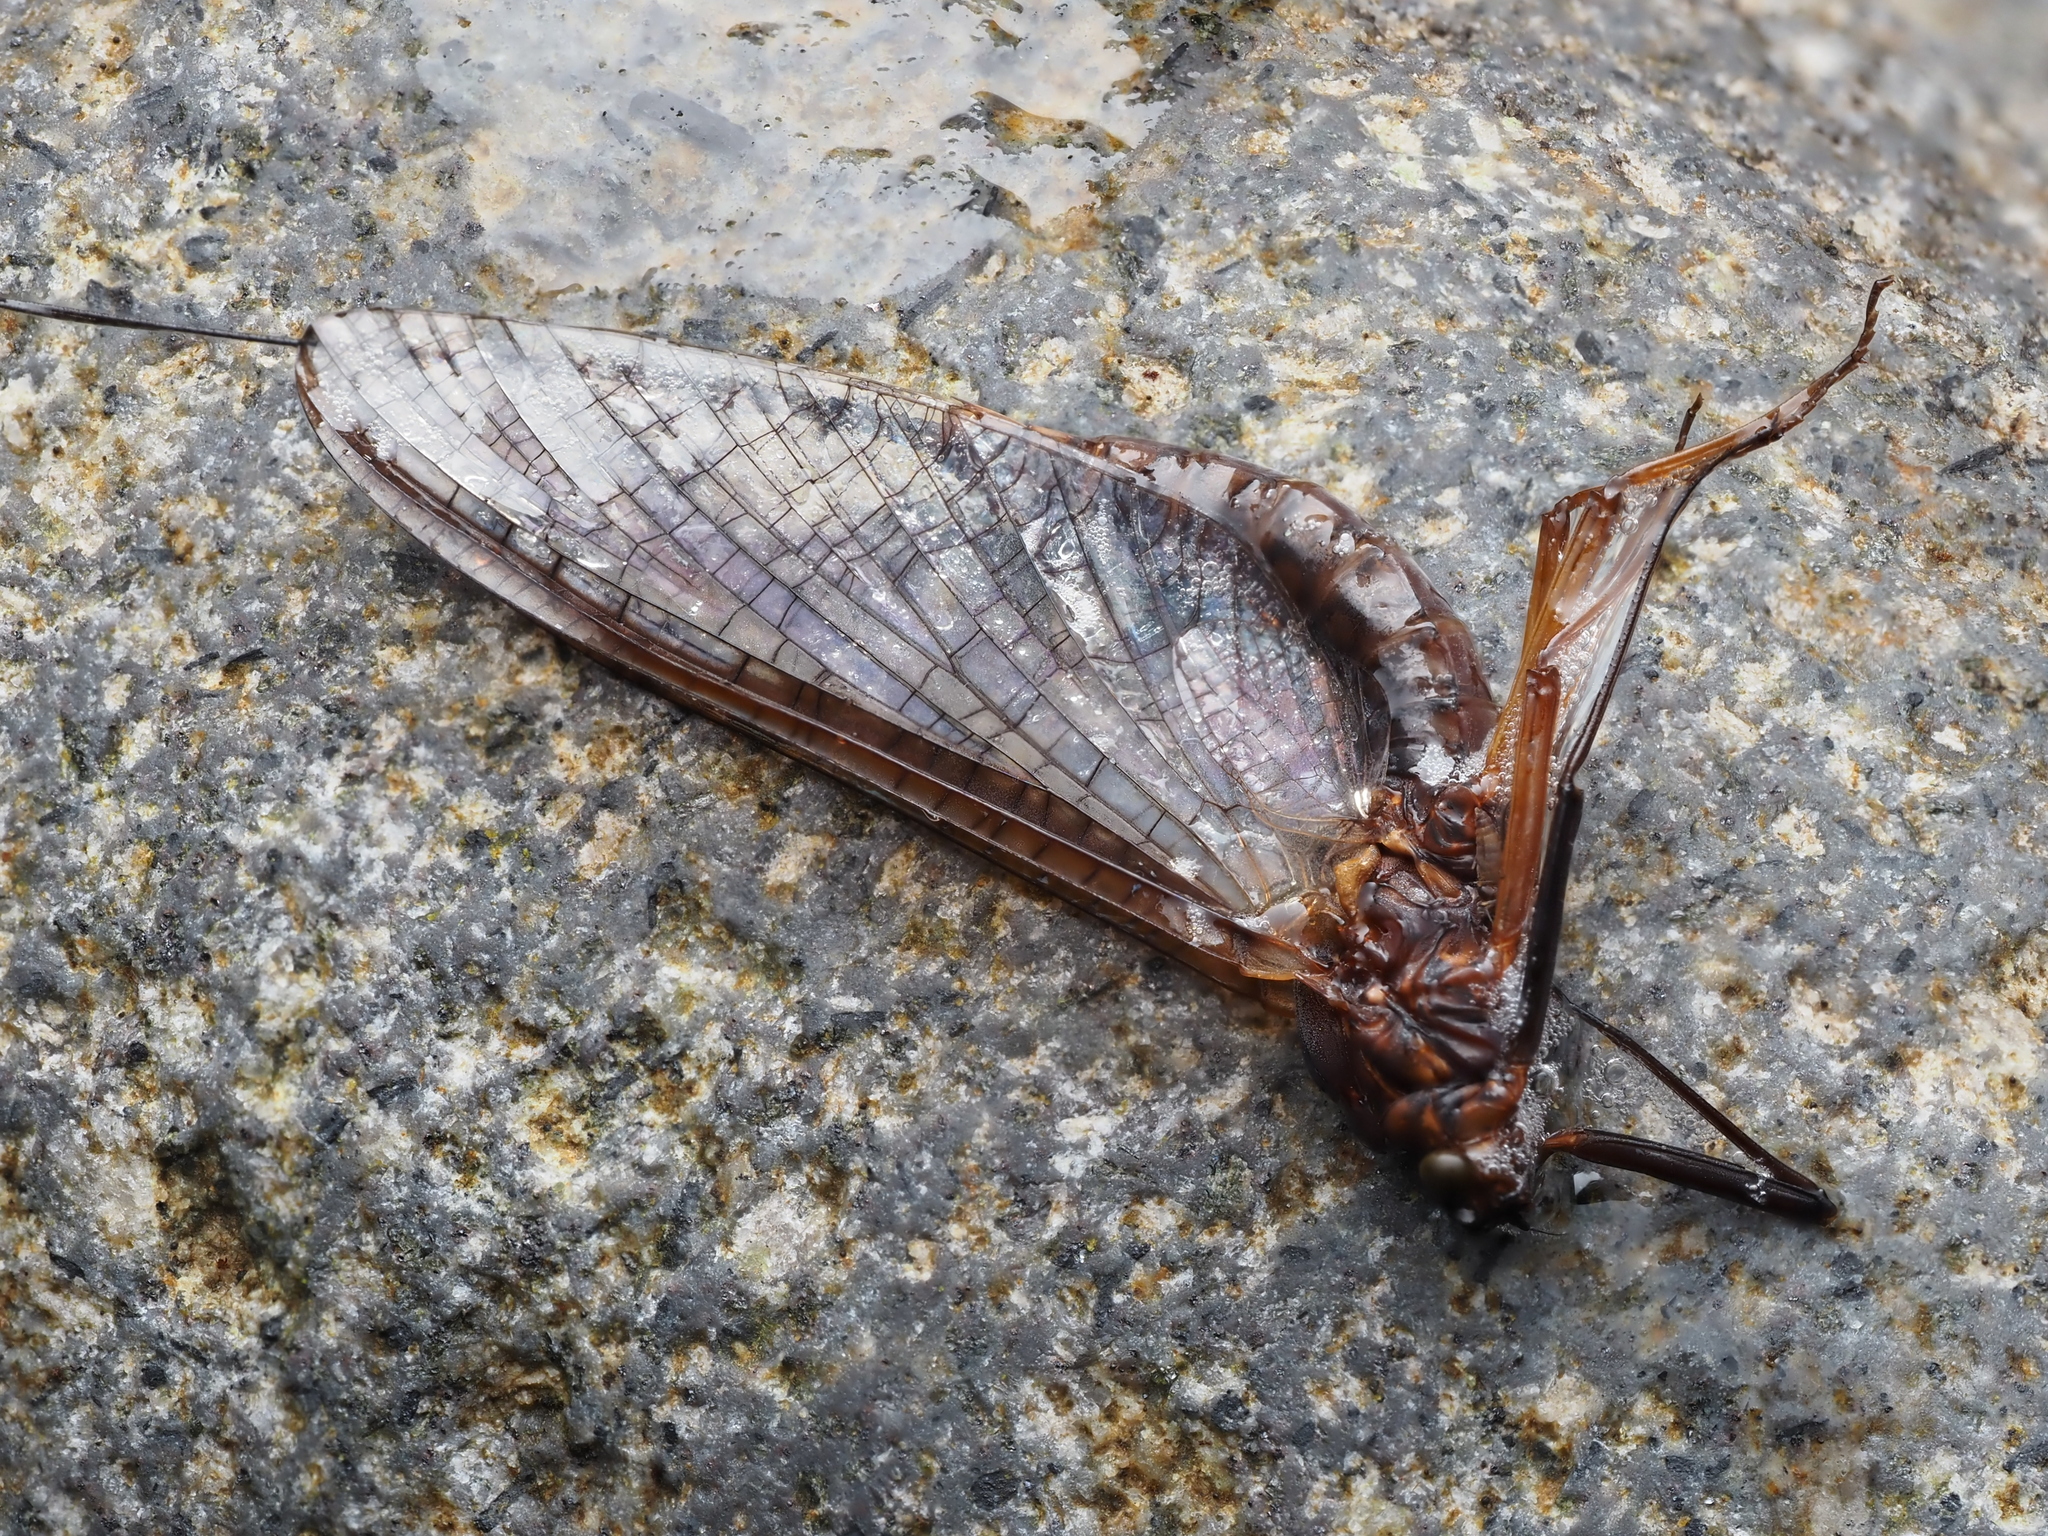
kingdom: Animalia
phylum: Arthropoda
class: Insecta
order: Ephemeroptera
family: Leptophlebiidae
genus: Deleatidium
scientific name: Deleatidium magnum
